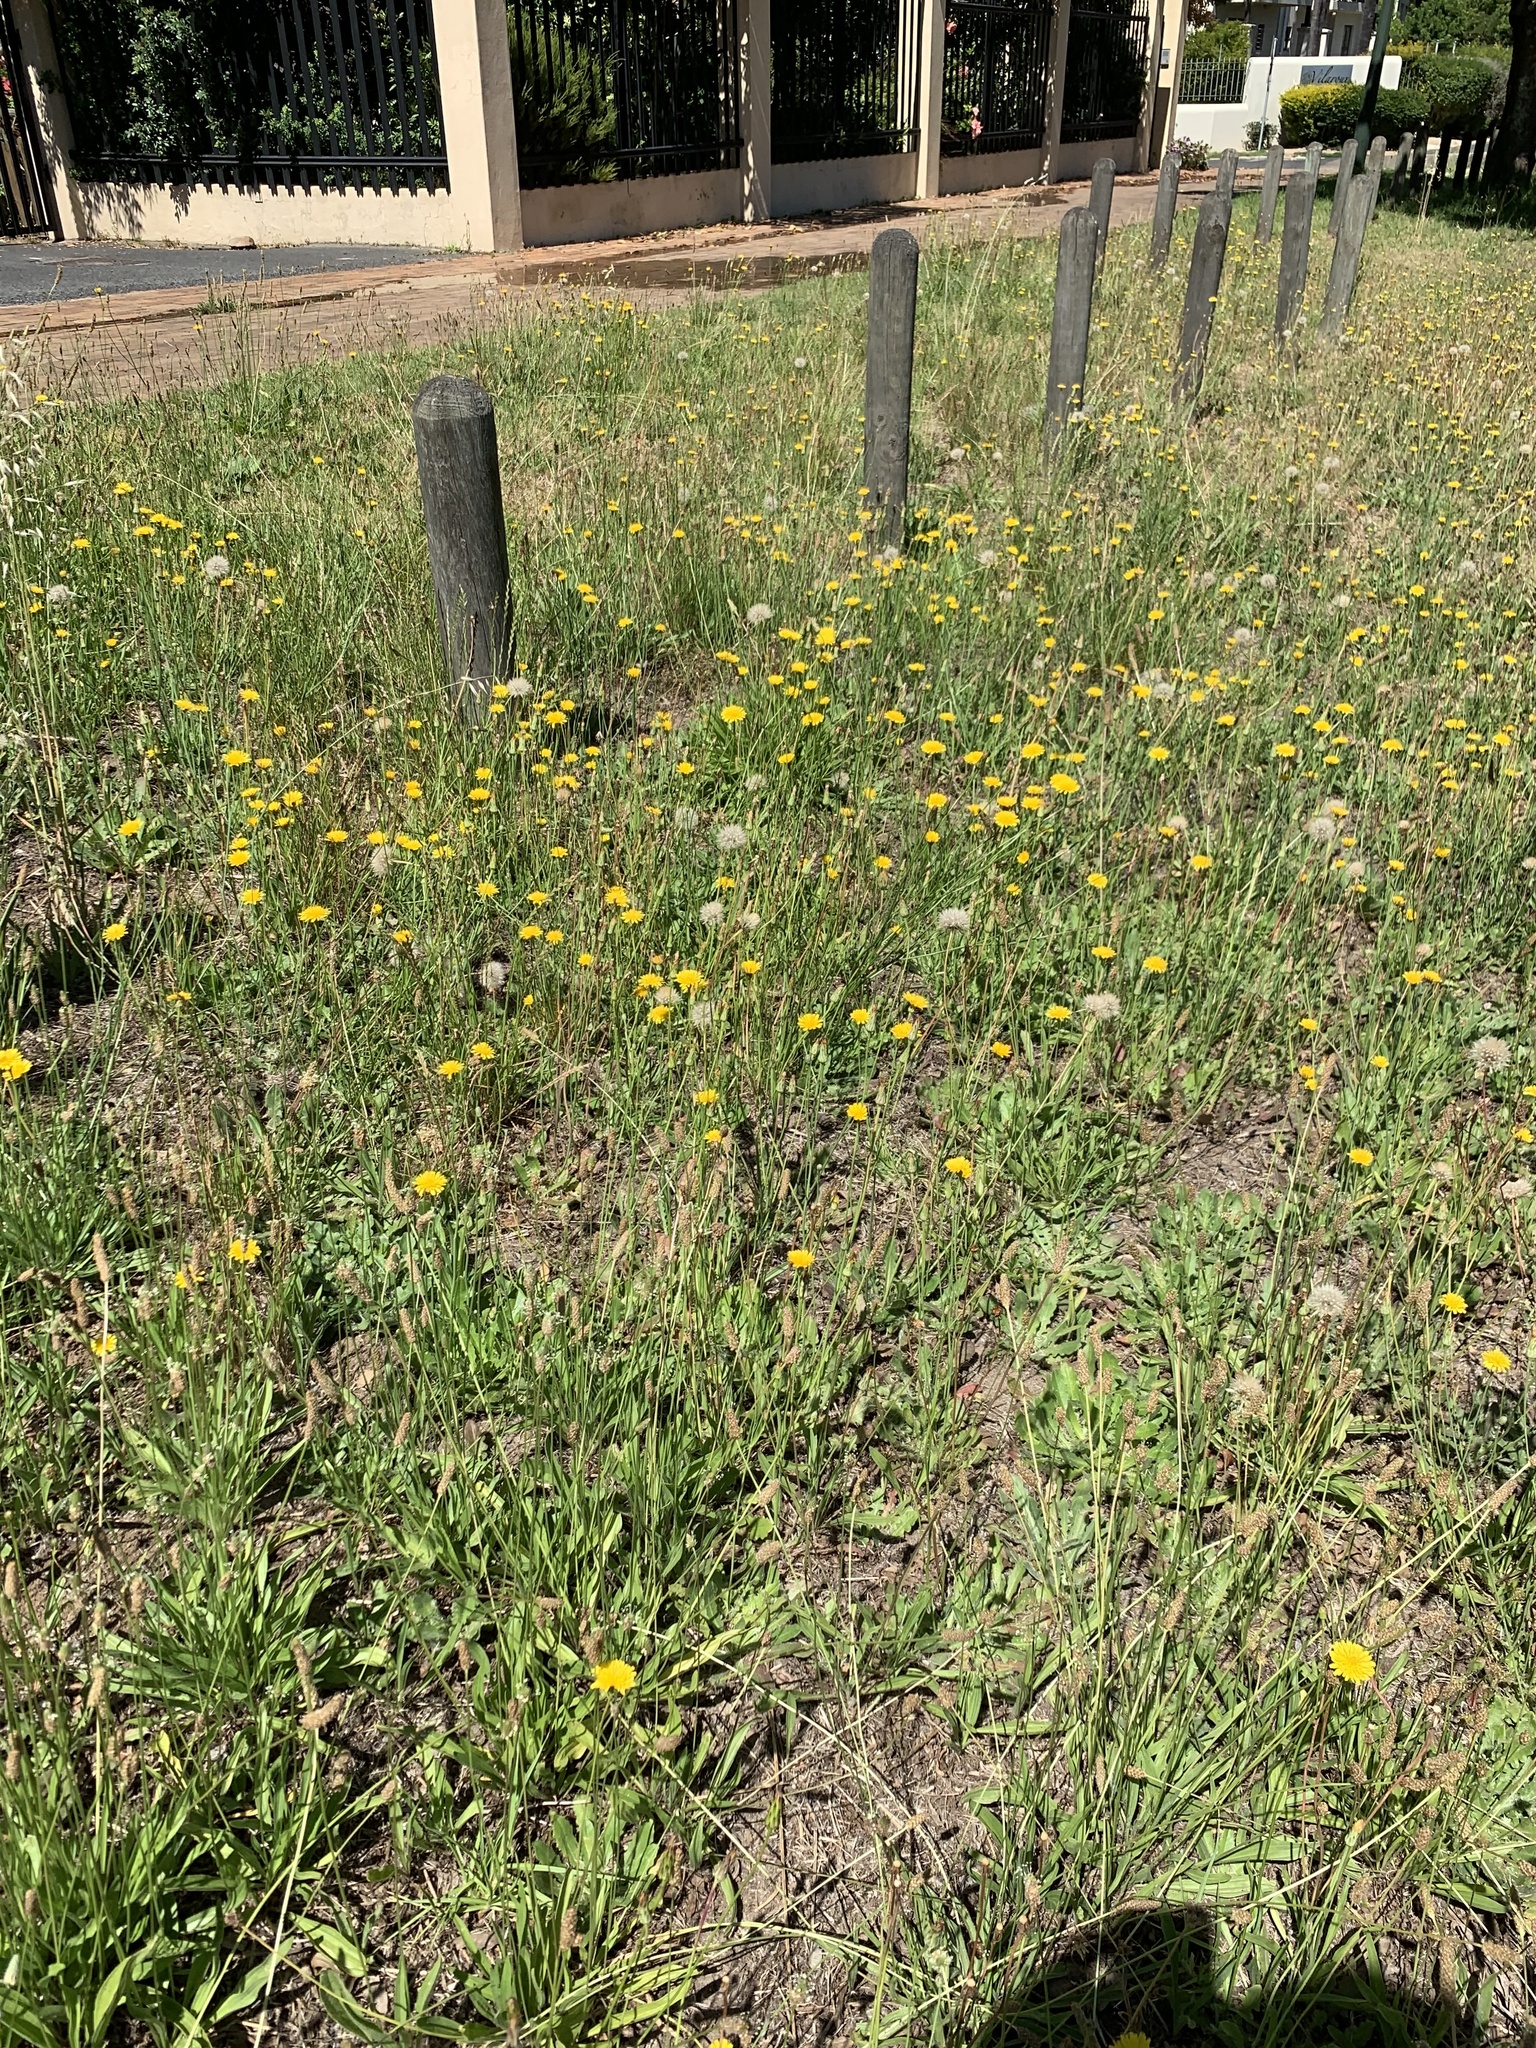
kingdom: Plantae
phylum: Tracheophyta
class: Magnoliopsida
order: Asterales
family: Asteraceae
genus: Hypochaeris
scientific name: Hypochaeris radicata
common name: Flatweed
